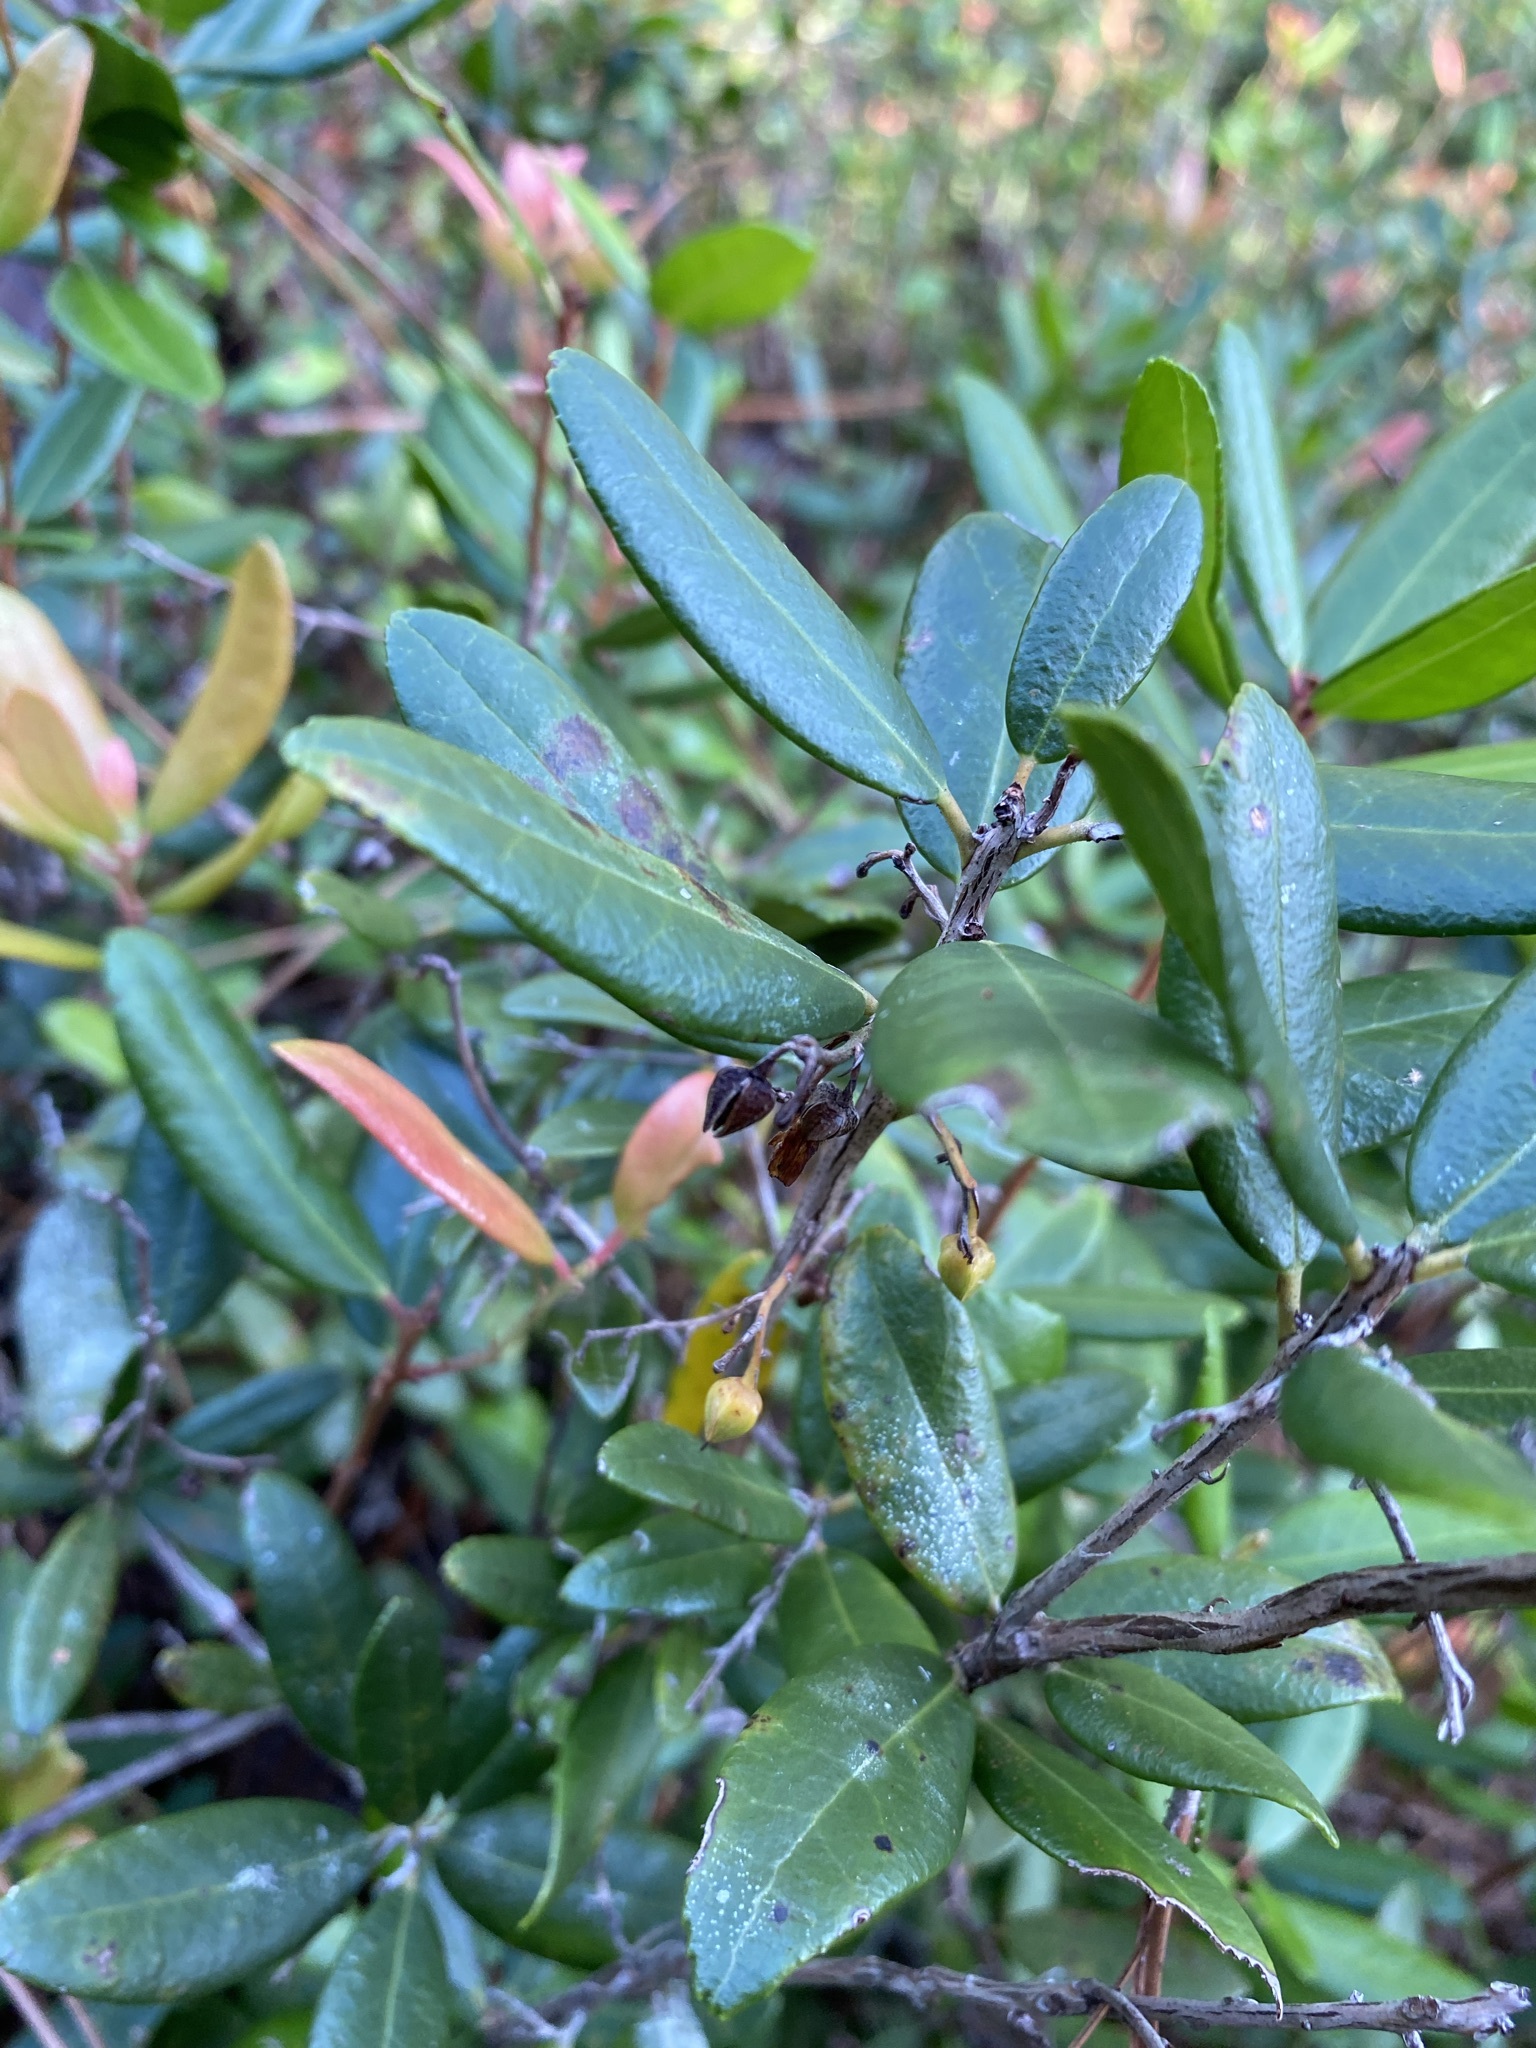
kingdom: Plantae
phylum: Tracheophyta
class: Magnoliopsida
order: Ericales
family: Ericaceae
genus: Pieris
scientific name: Pieris phillyreifolia
